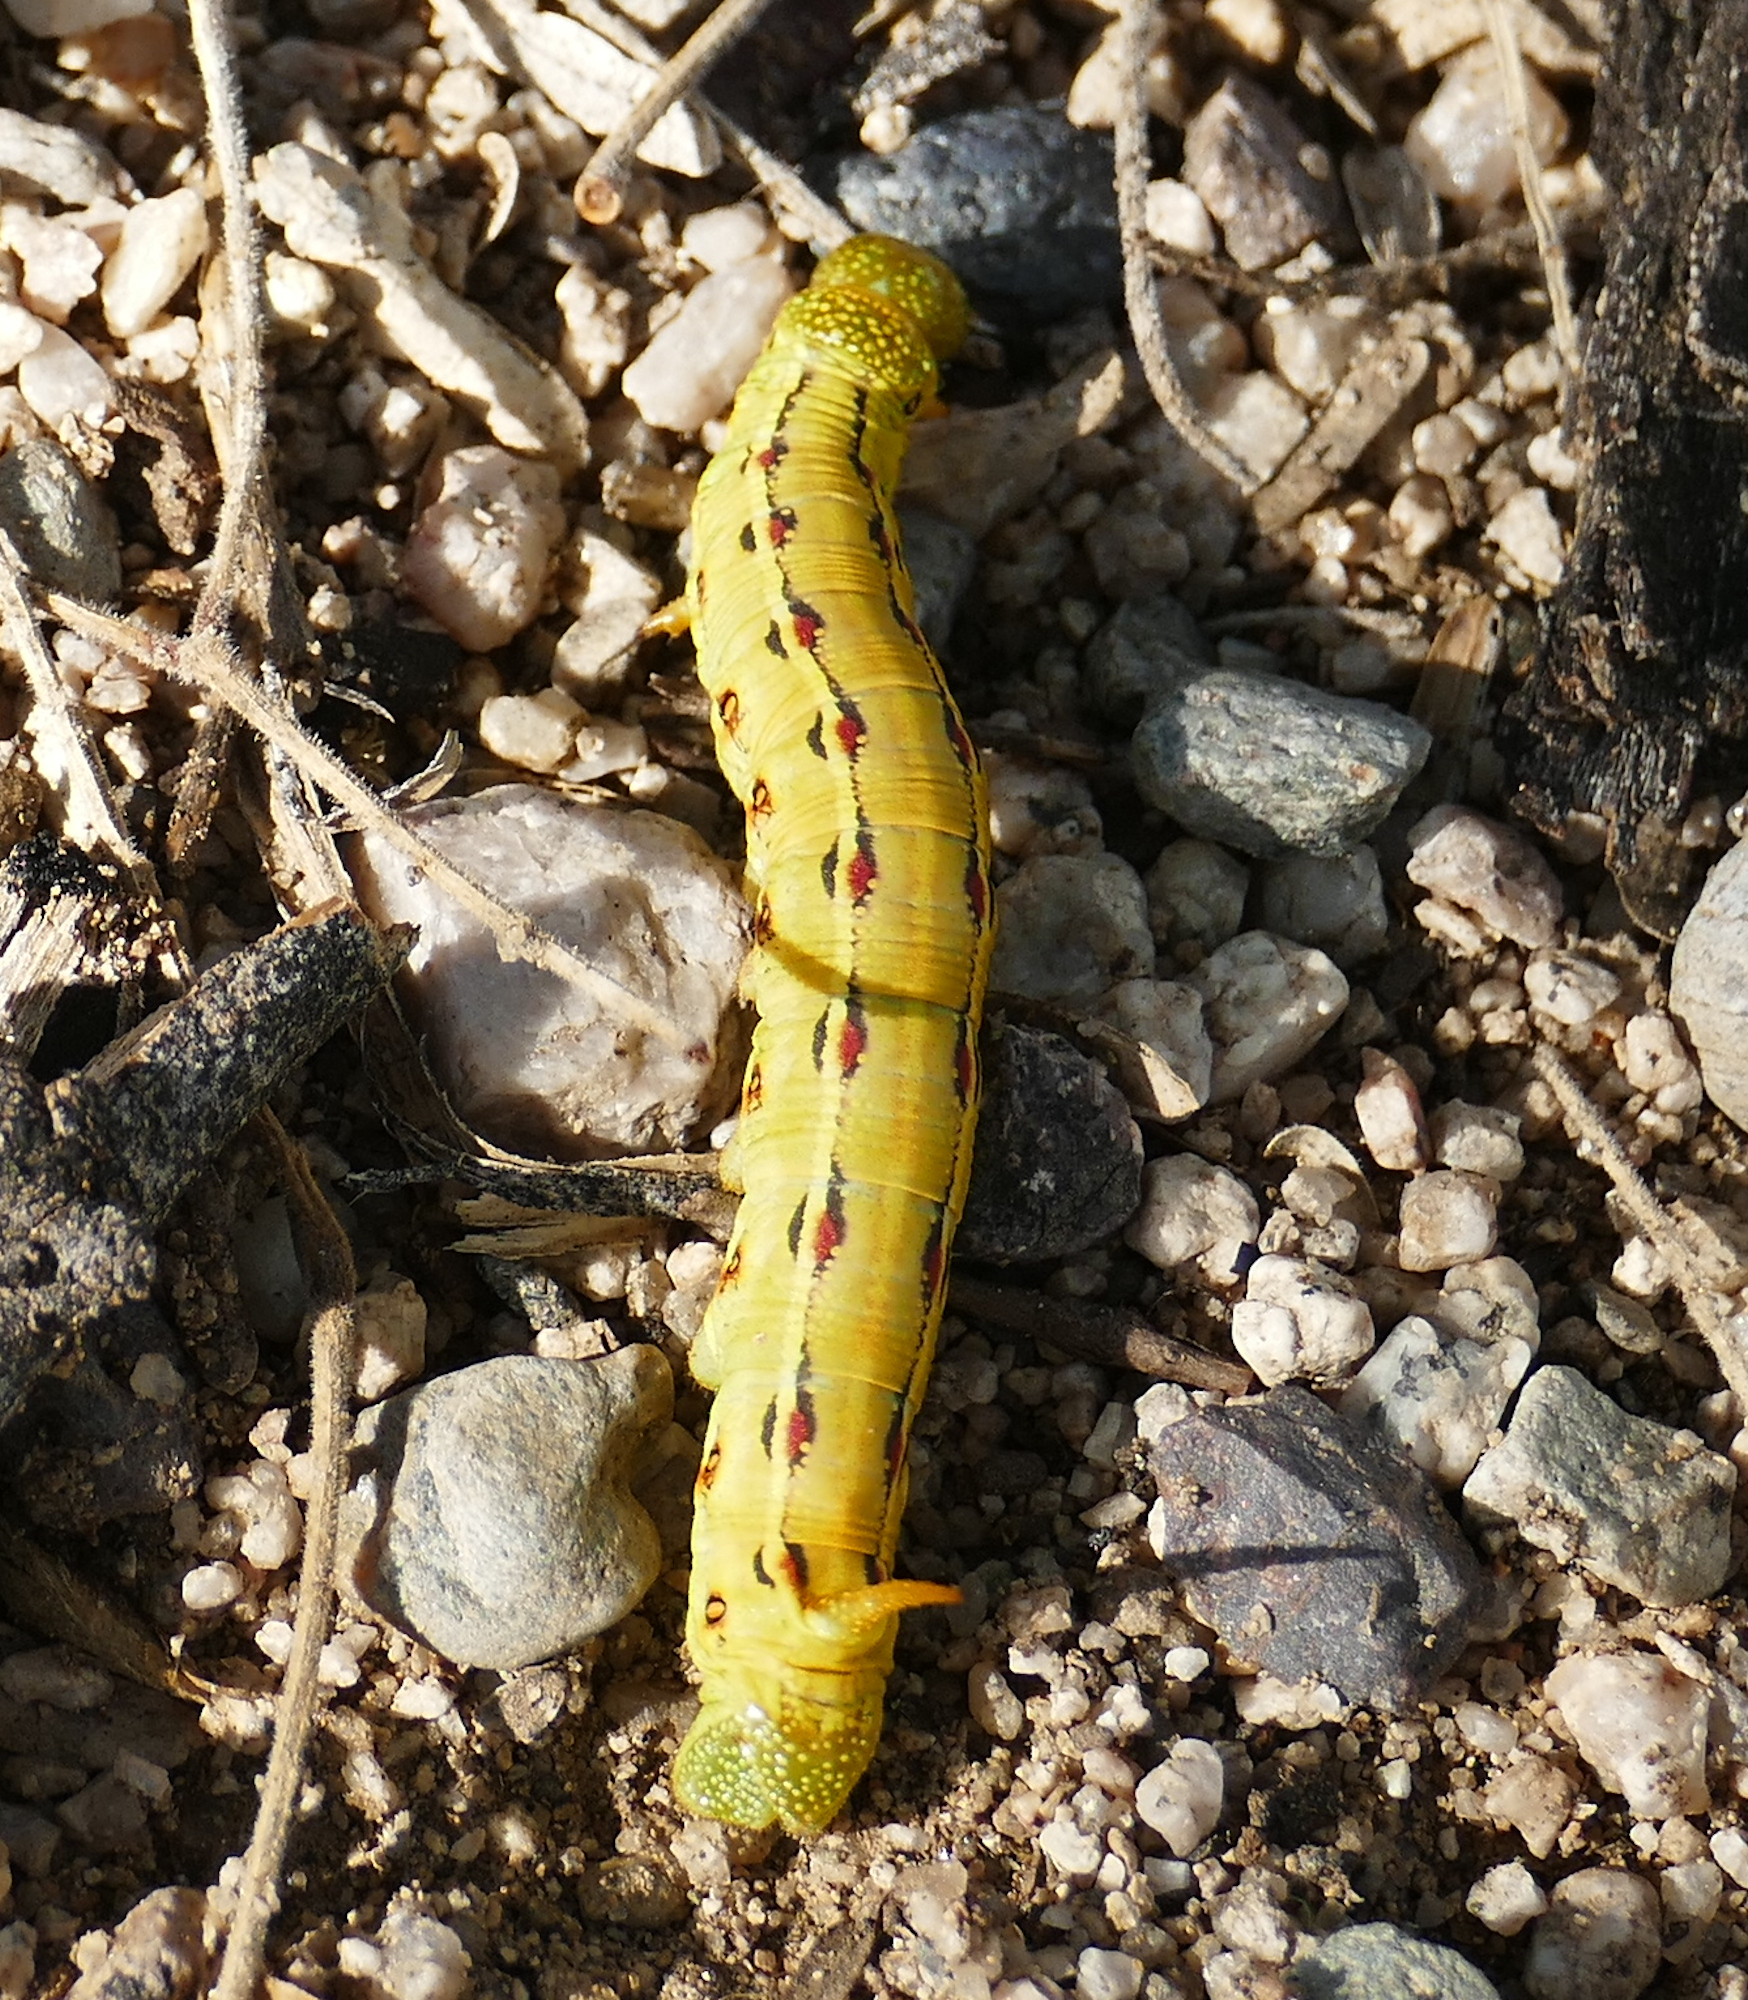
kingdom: Animalia
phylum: Arthropoda
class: Insecta
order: Lepidoptera
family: Sphingidae
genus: Hyles
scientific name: Hyles lineata
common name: White-lined sphinx
